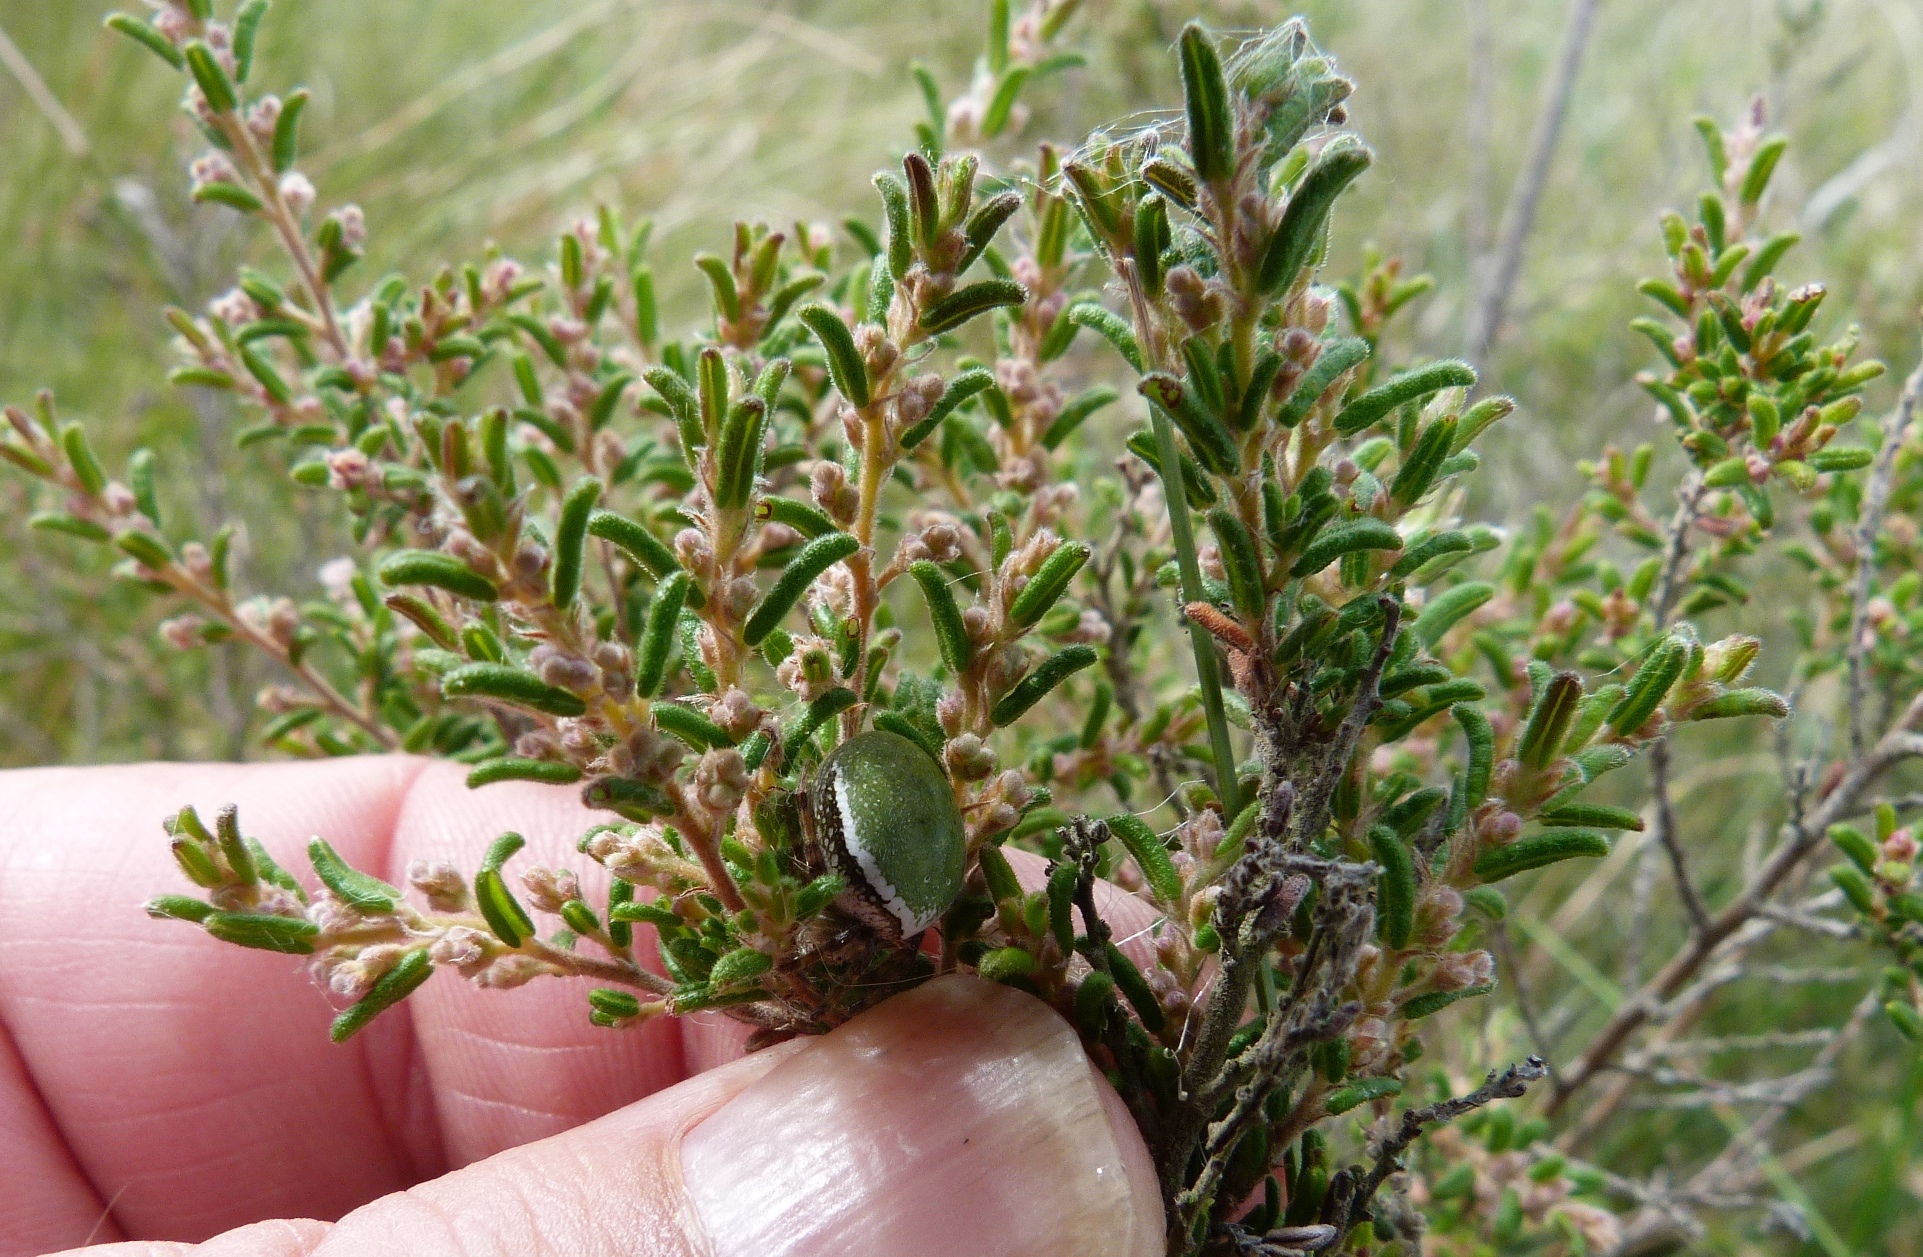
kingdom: Animalia
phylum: Arthropoda
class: Arachnida
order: Araneae
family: Araneidae
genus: Colaranea
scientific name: Colaranea viriditas
